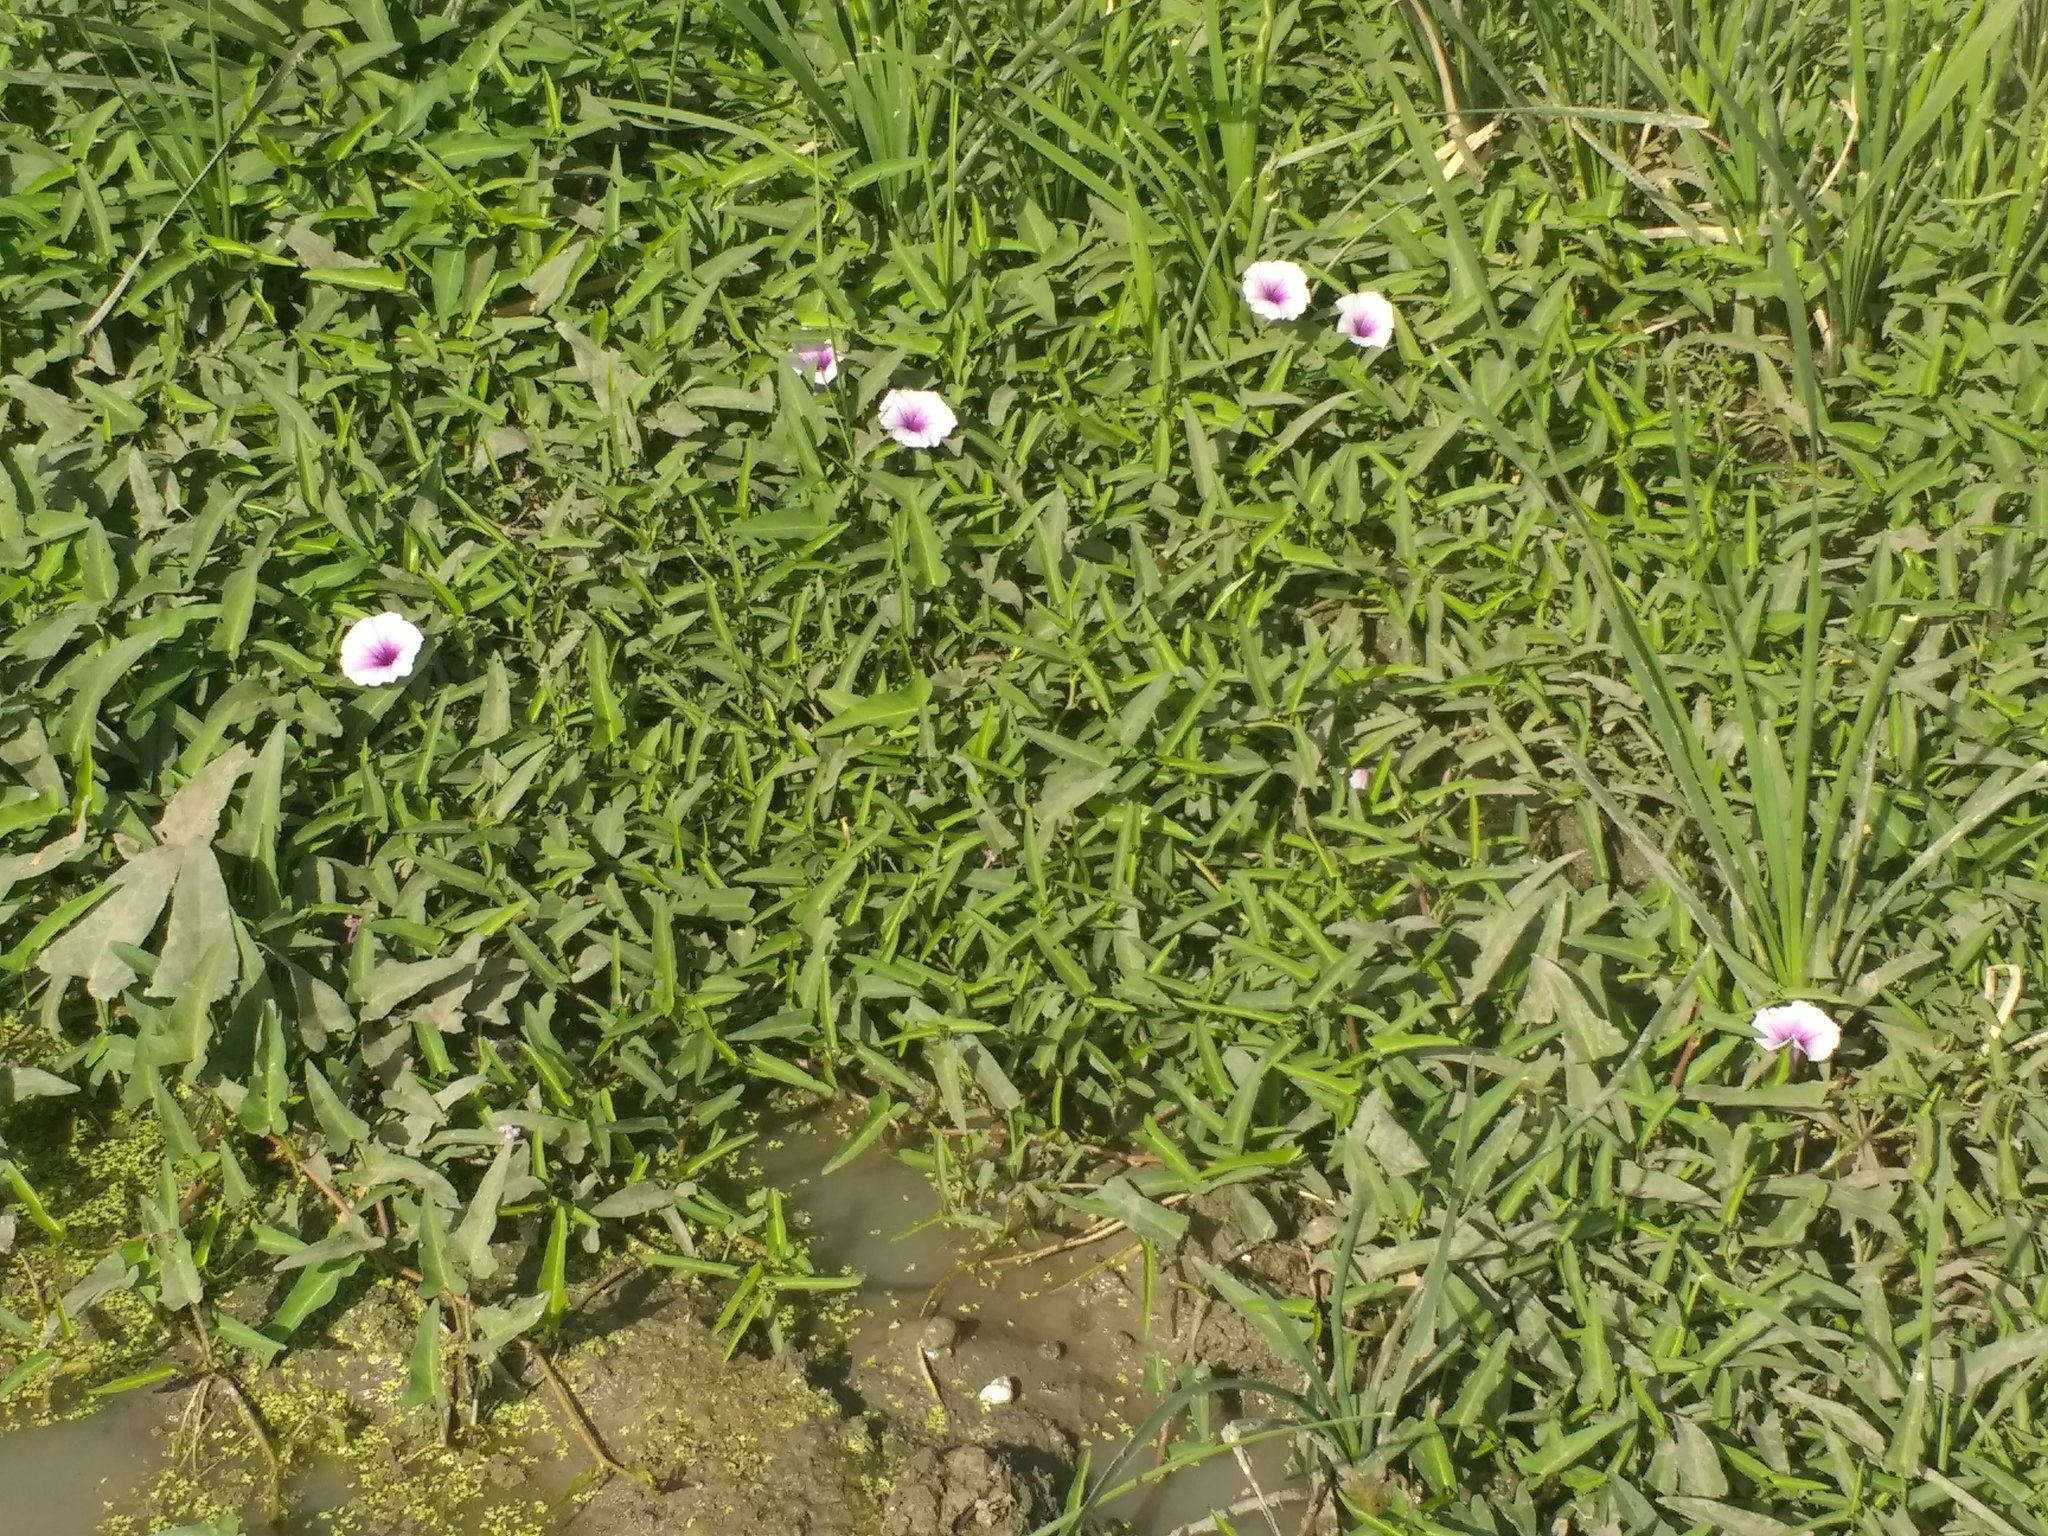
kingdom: Plantae
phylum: Tracheophyta
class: Magnoliopsida
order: Solanales
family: Convolvulaceae
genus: Ipomoea
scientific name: Ipomoea aquatica
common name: Swamp morning-glory
